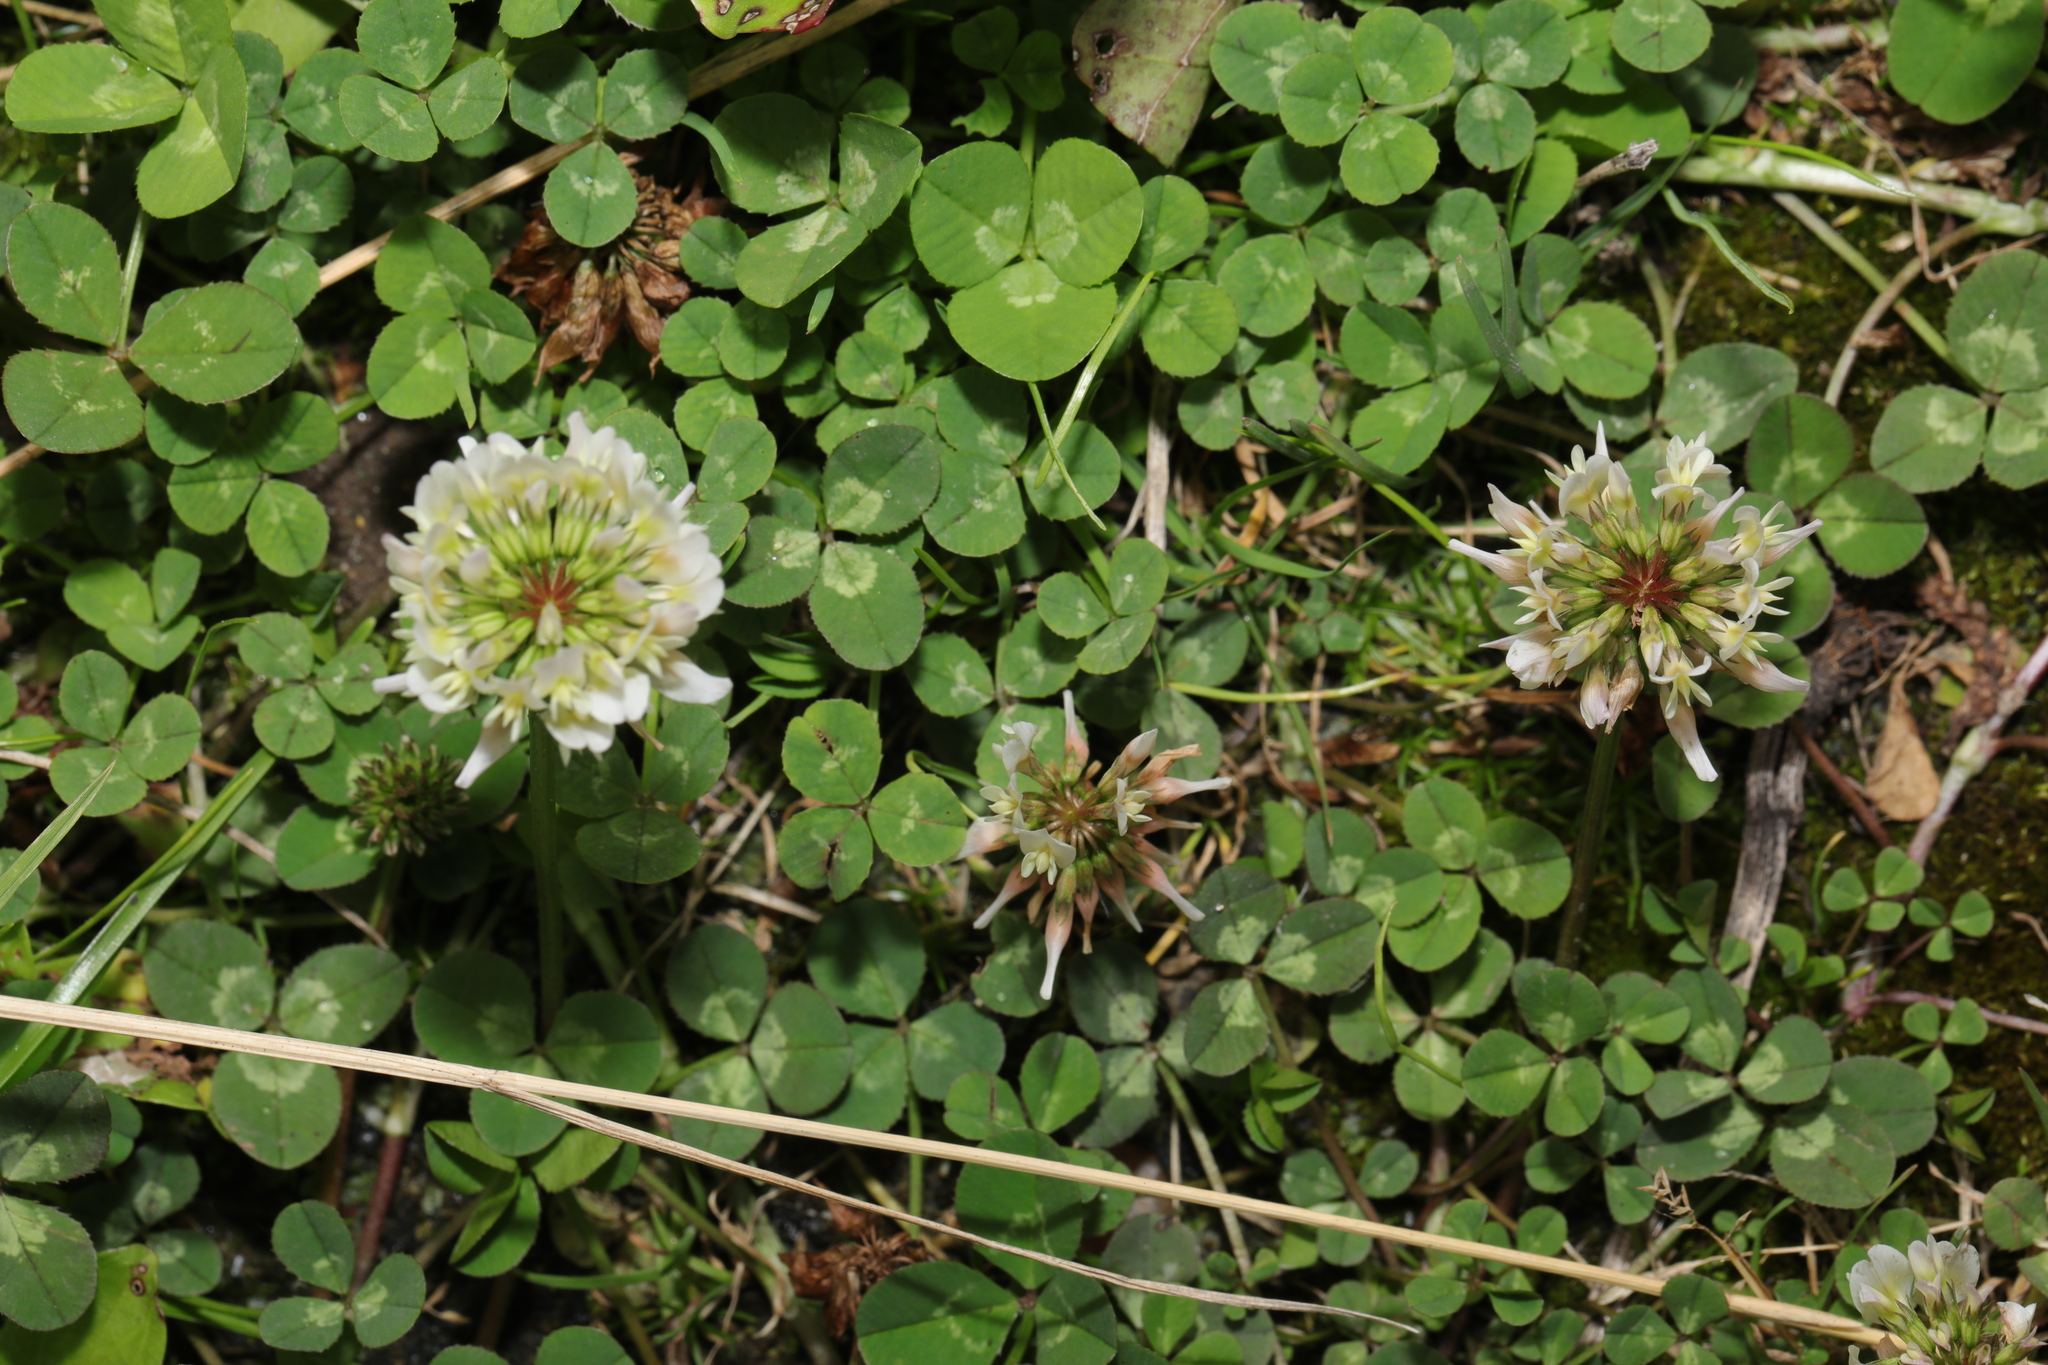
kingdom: Plantae
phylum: Tracheophyta
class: Magnoliopsida
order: Fabales
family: Fabaceae
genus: Trifolium
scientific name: Trifolium repens
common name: White clover
